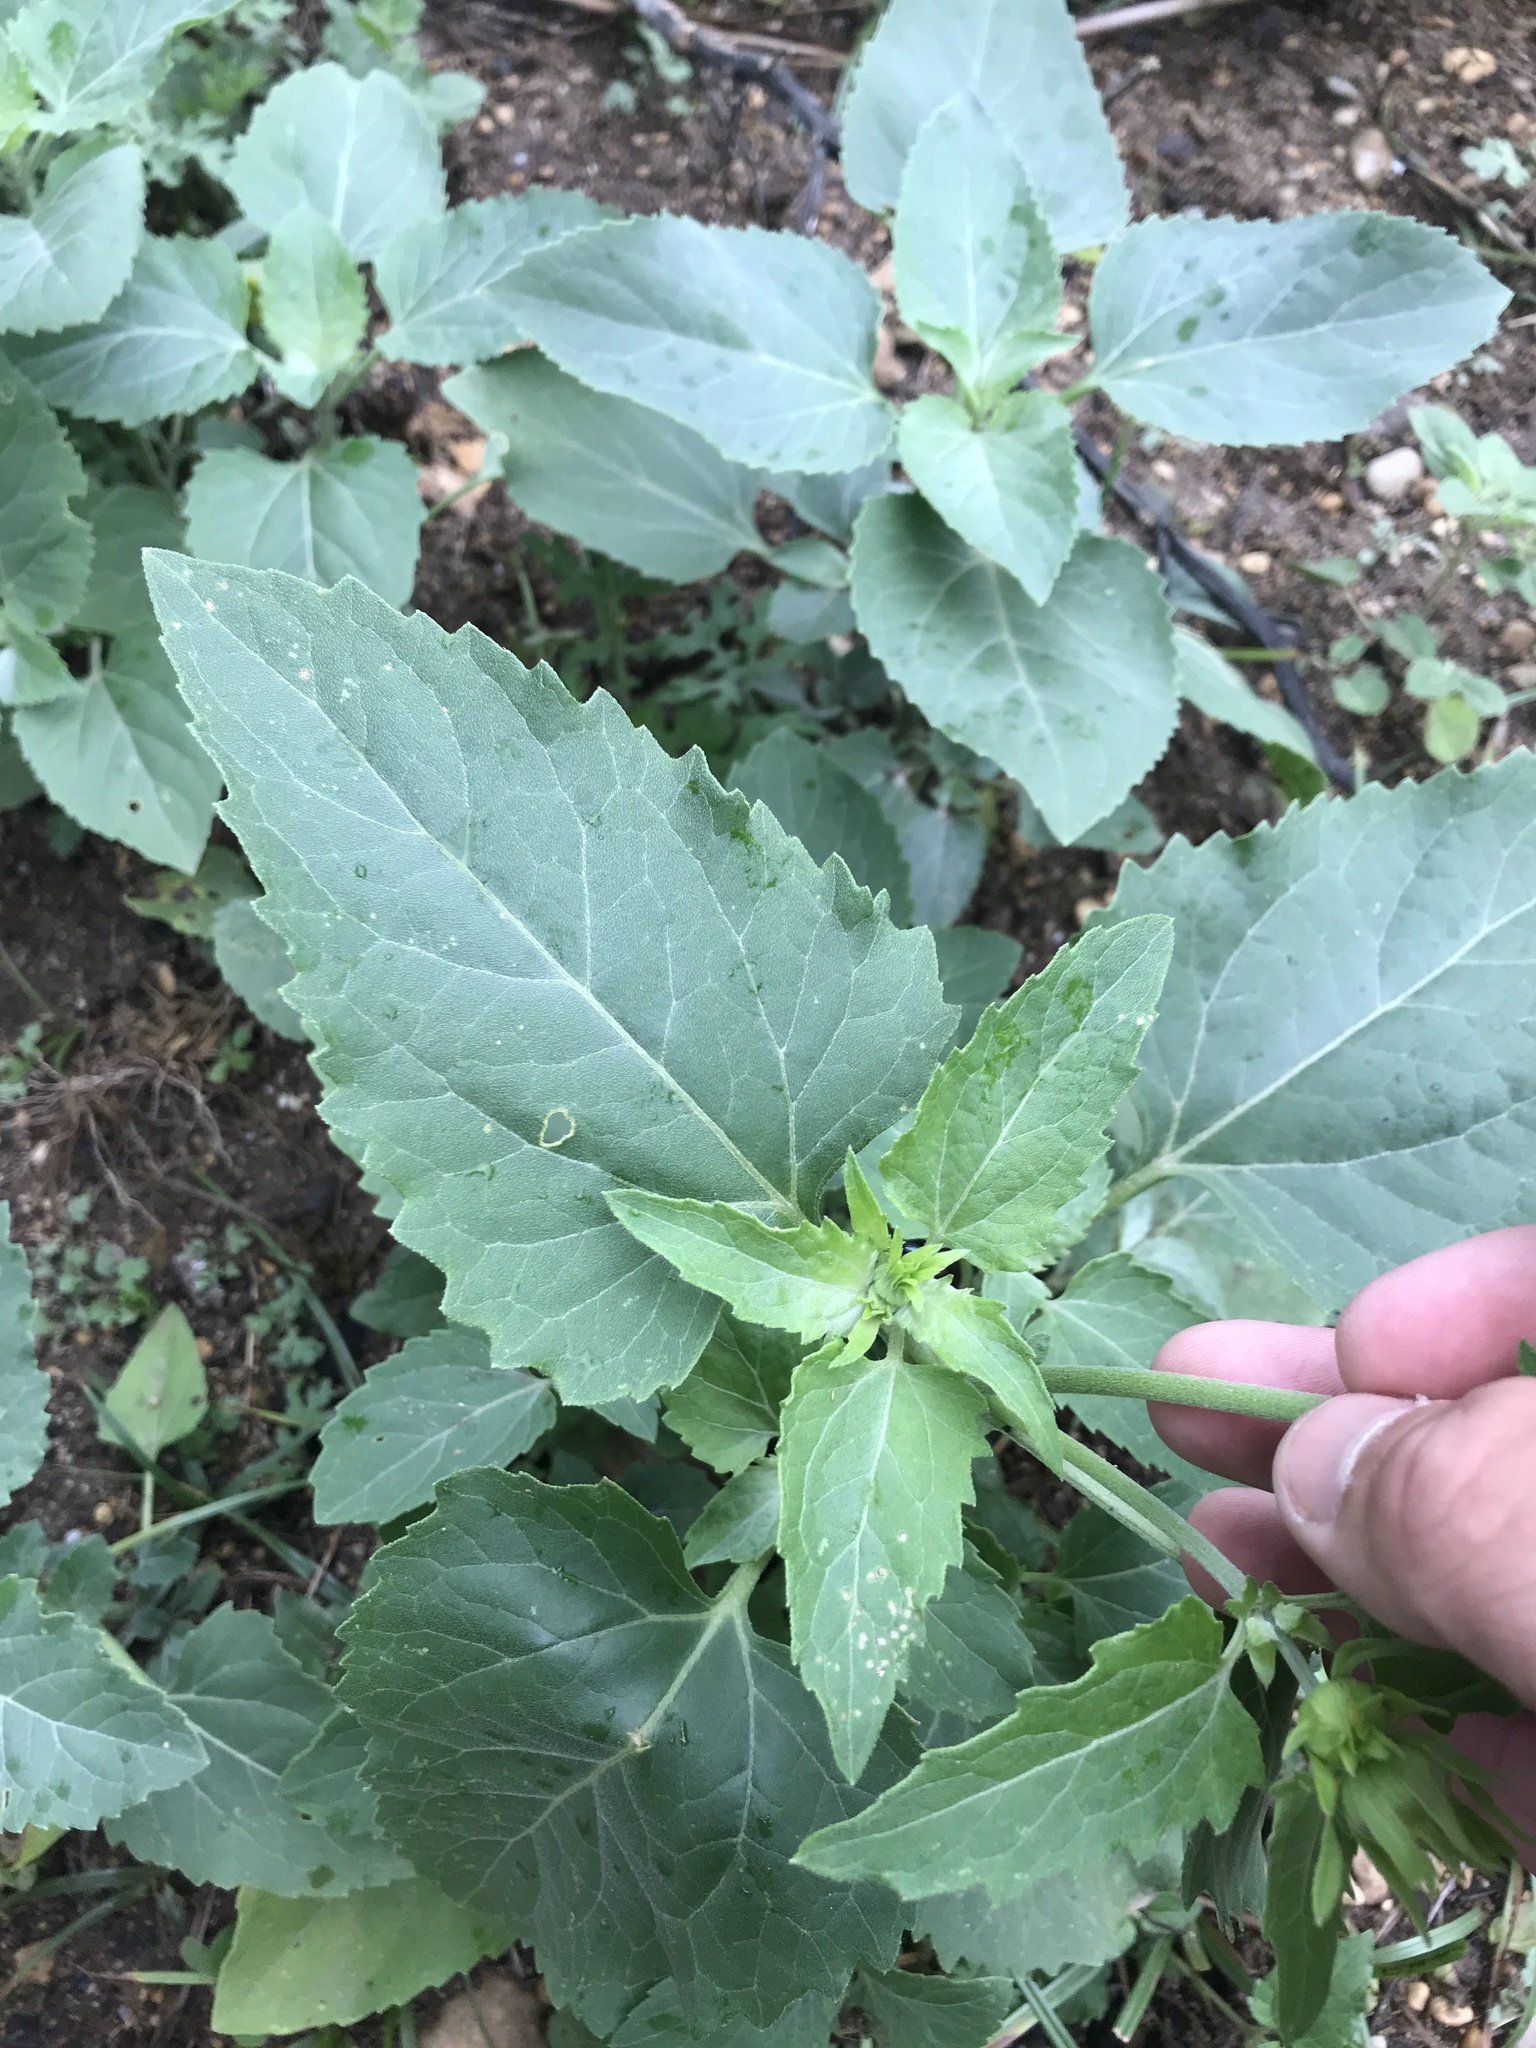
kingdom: Plantae
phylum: Tracheophyta
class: Magnoliopsida
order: Asterales
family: Asteraceae
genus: Verbesina
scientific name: Verbesina encelioides
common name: Golden crownbeard
